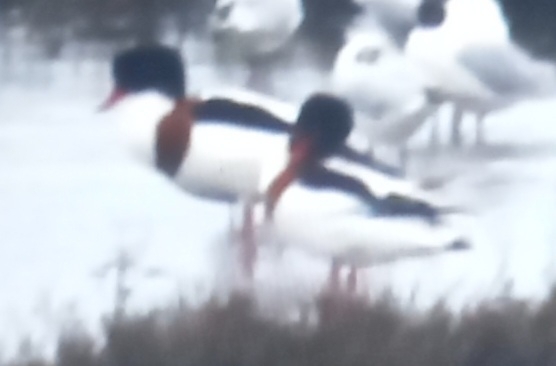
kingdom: Animalia
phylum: Chordata
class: Aves
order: Anseriformes
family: Anatidae
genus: Tadorna
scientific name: Tadorna tadorna
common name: Common shelduck
